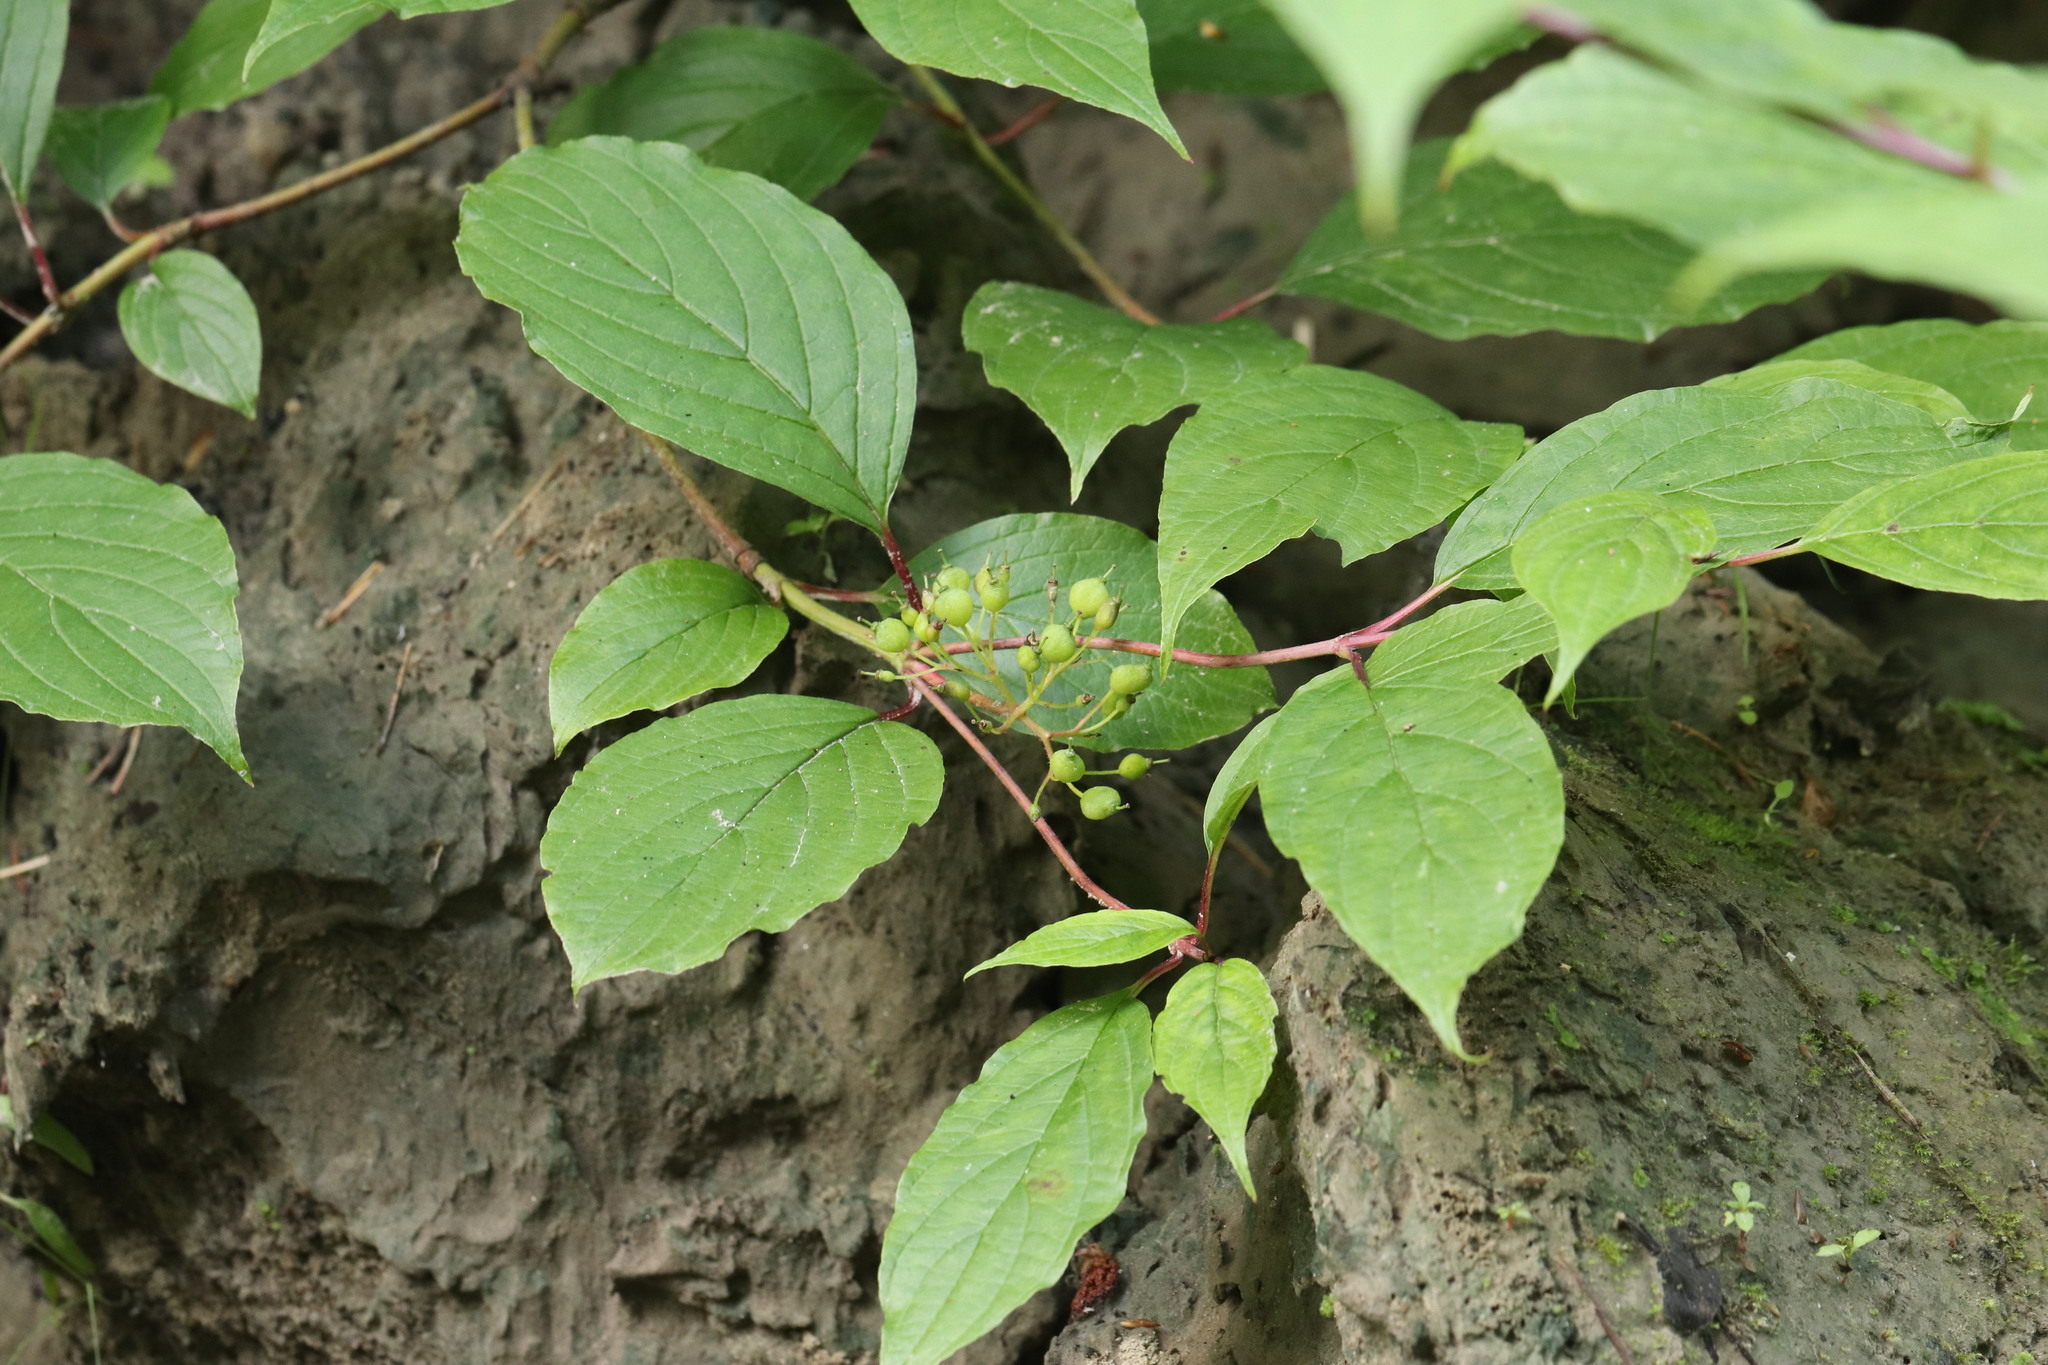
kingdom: Plantae
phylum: Tracheophyta
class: Magnoliopsida
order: Cornales
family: Cornaceae
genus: Cornus
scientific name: Cornus alba
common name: White dogwood
